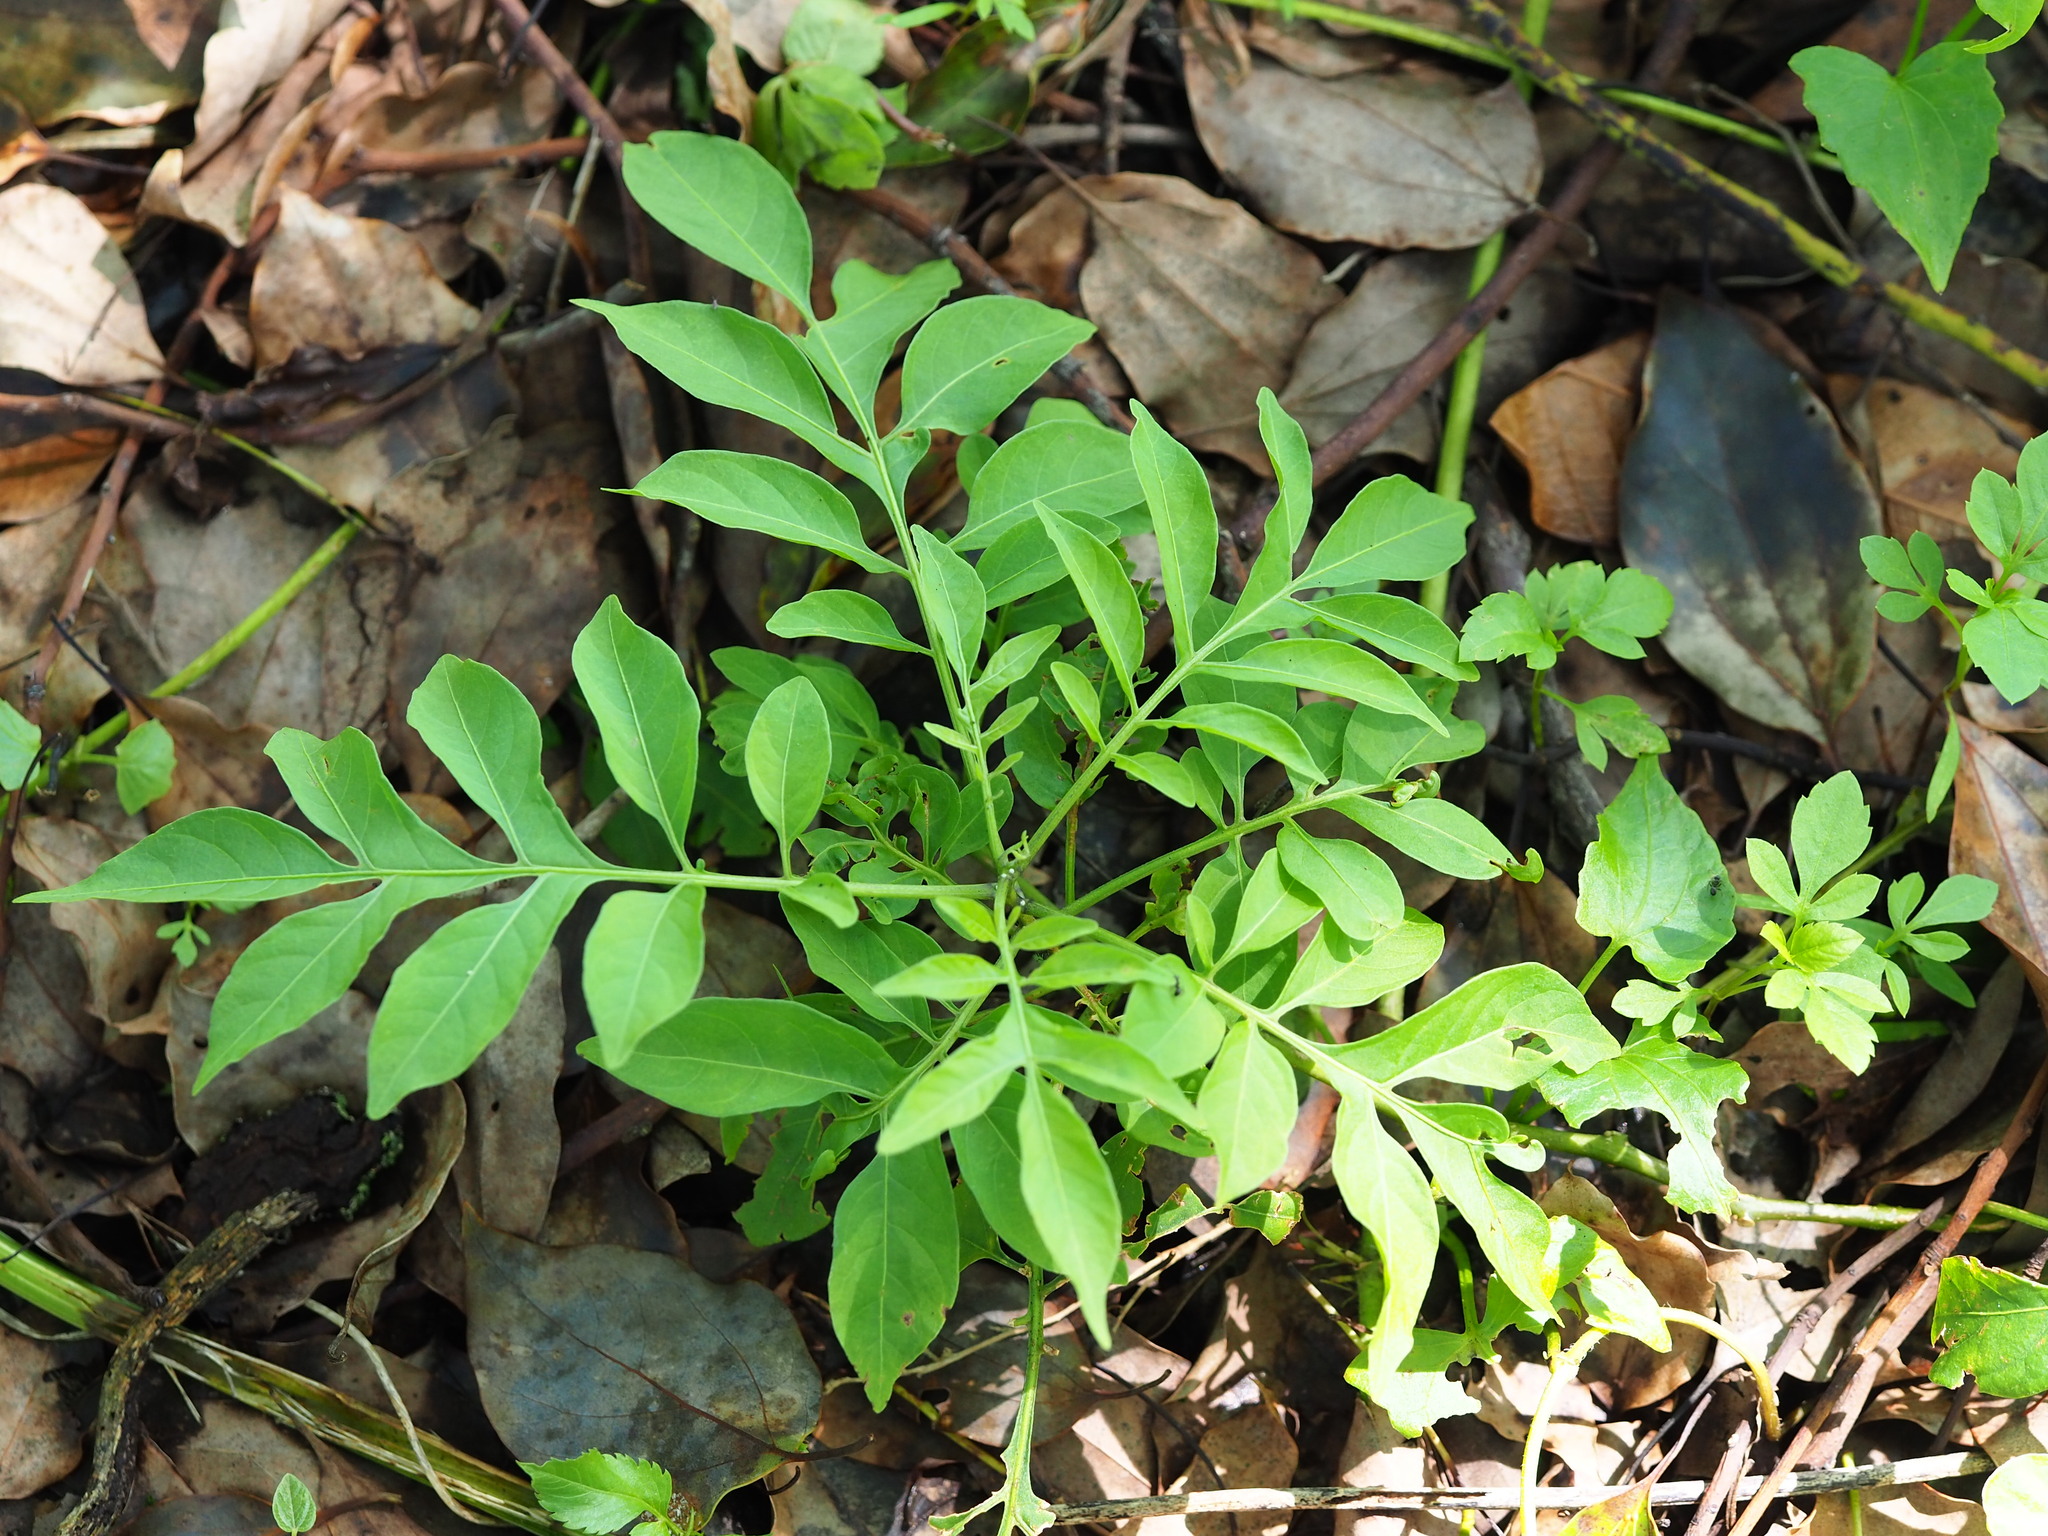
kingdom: Plantae
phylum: Tracheophyta
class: Magnoliopsida
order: Solanales
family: Solanaceae
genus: Solanum
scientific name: Solanum seaforthianum
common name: Brazilian nightshade
